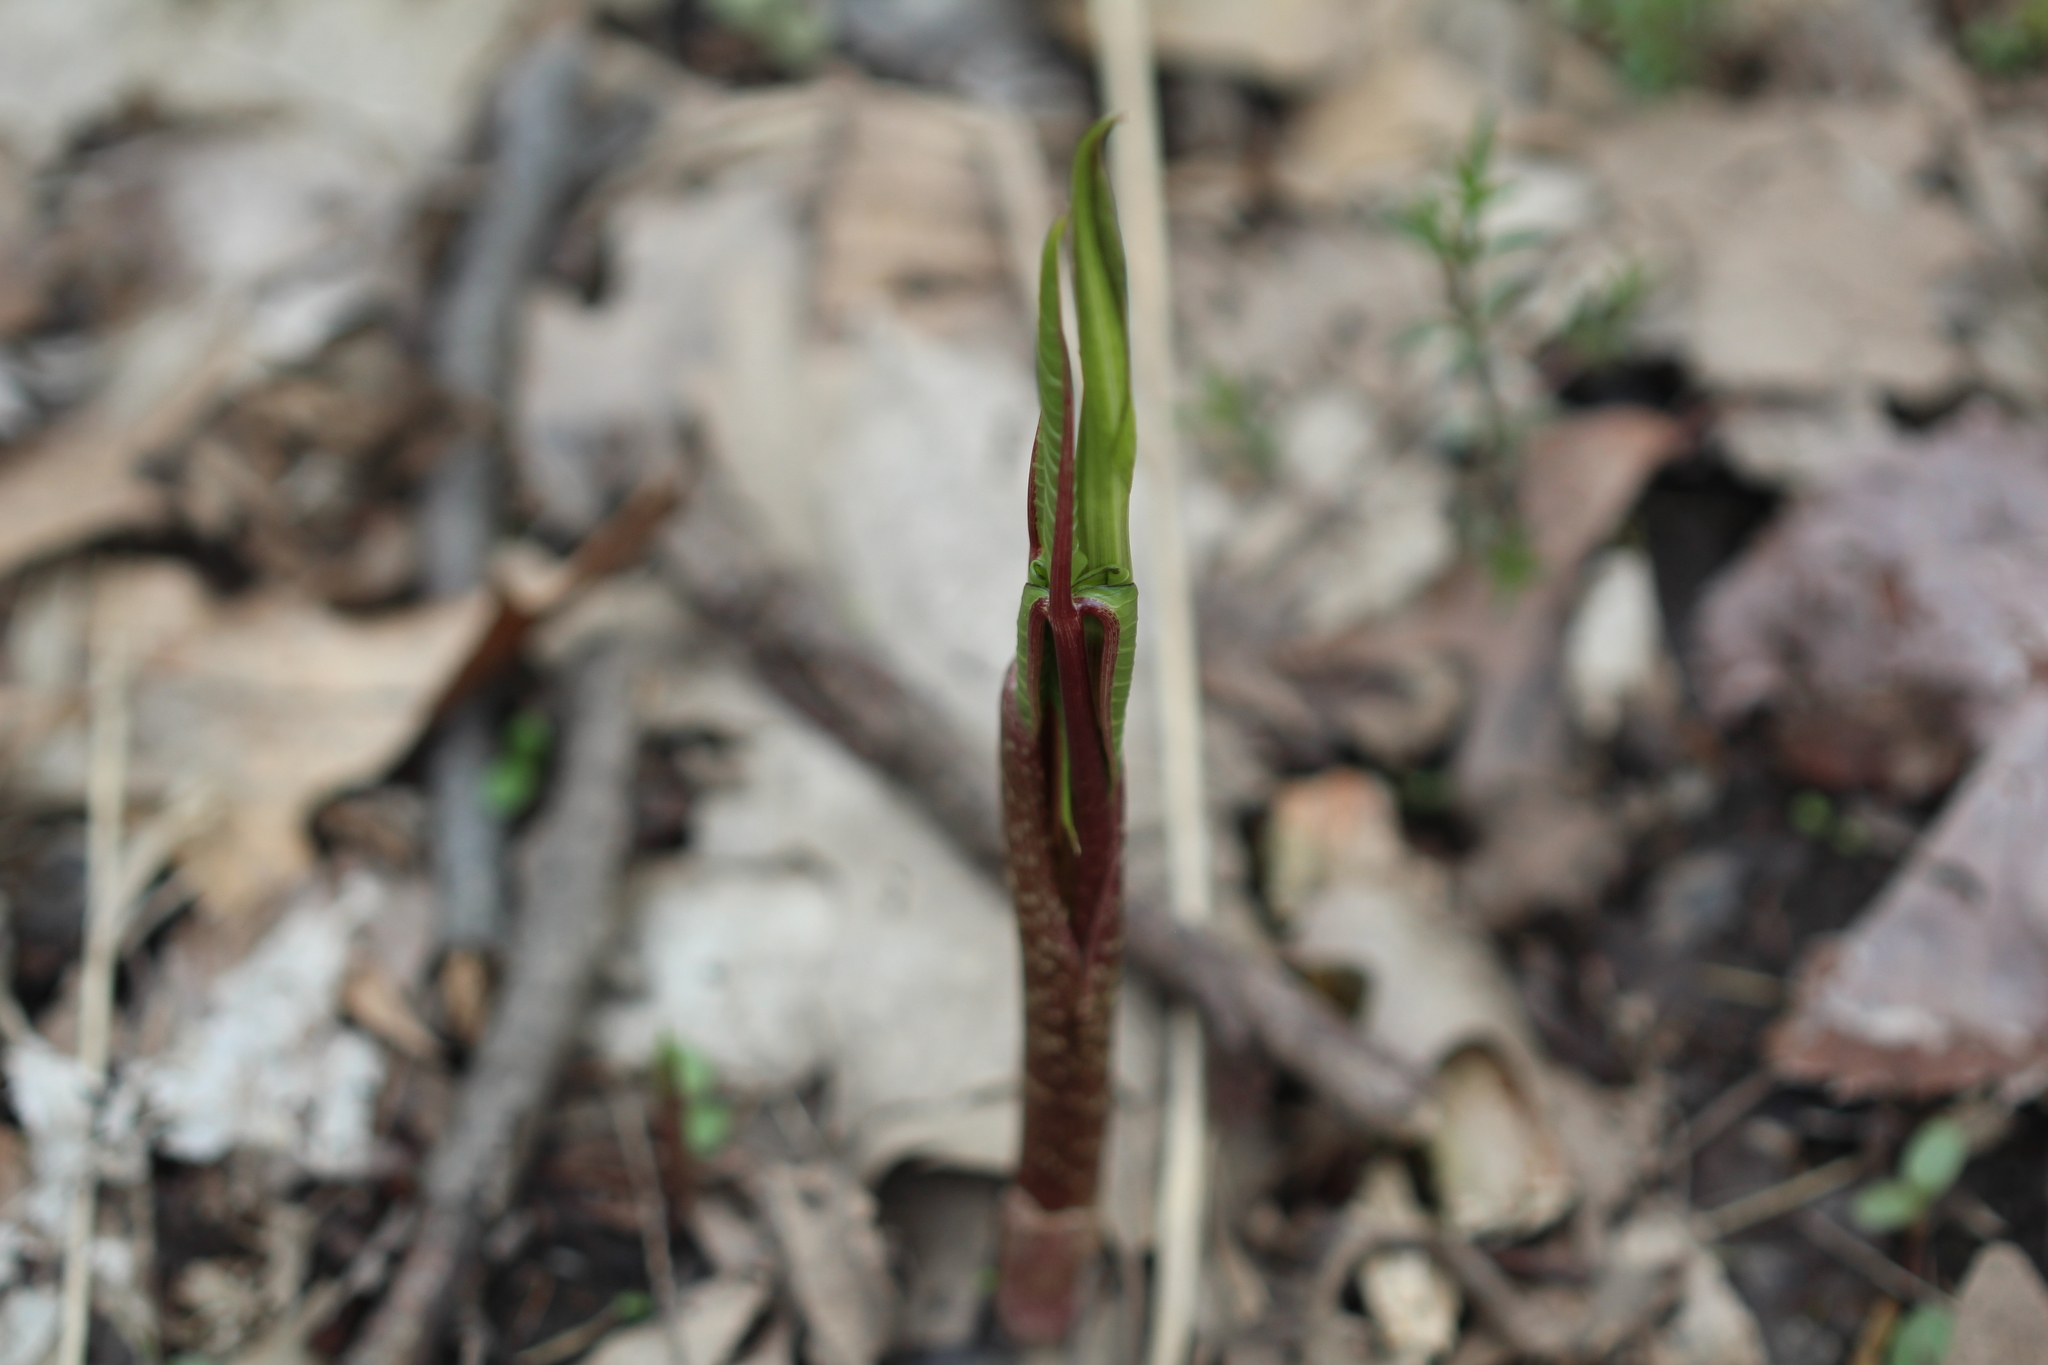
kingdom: Plantae
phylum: Tracheophyta
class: Liliopsida
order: Alismatales
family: Araceae
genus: Arisaema
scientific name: Arisaema triphyllum
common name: Jack-in-the-pulpit
